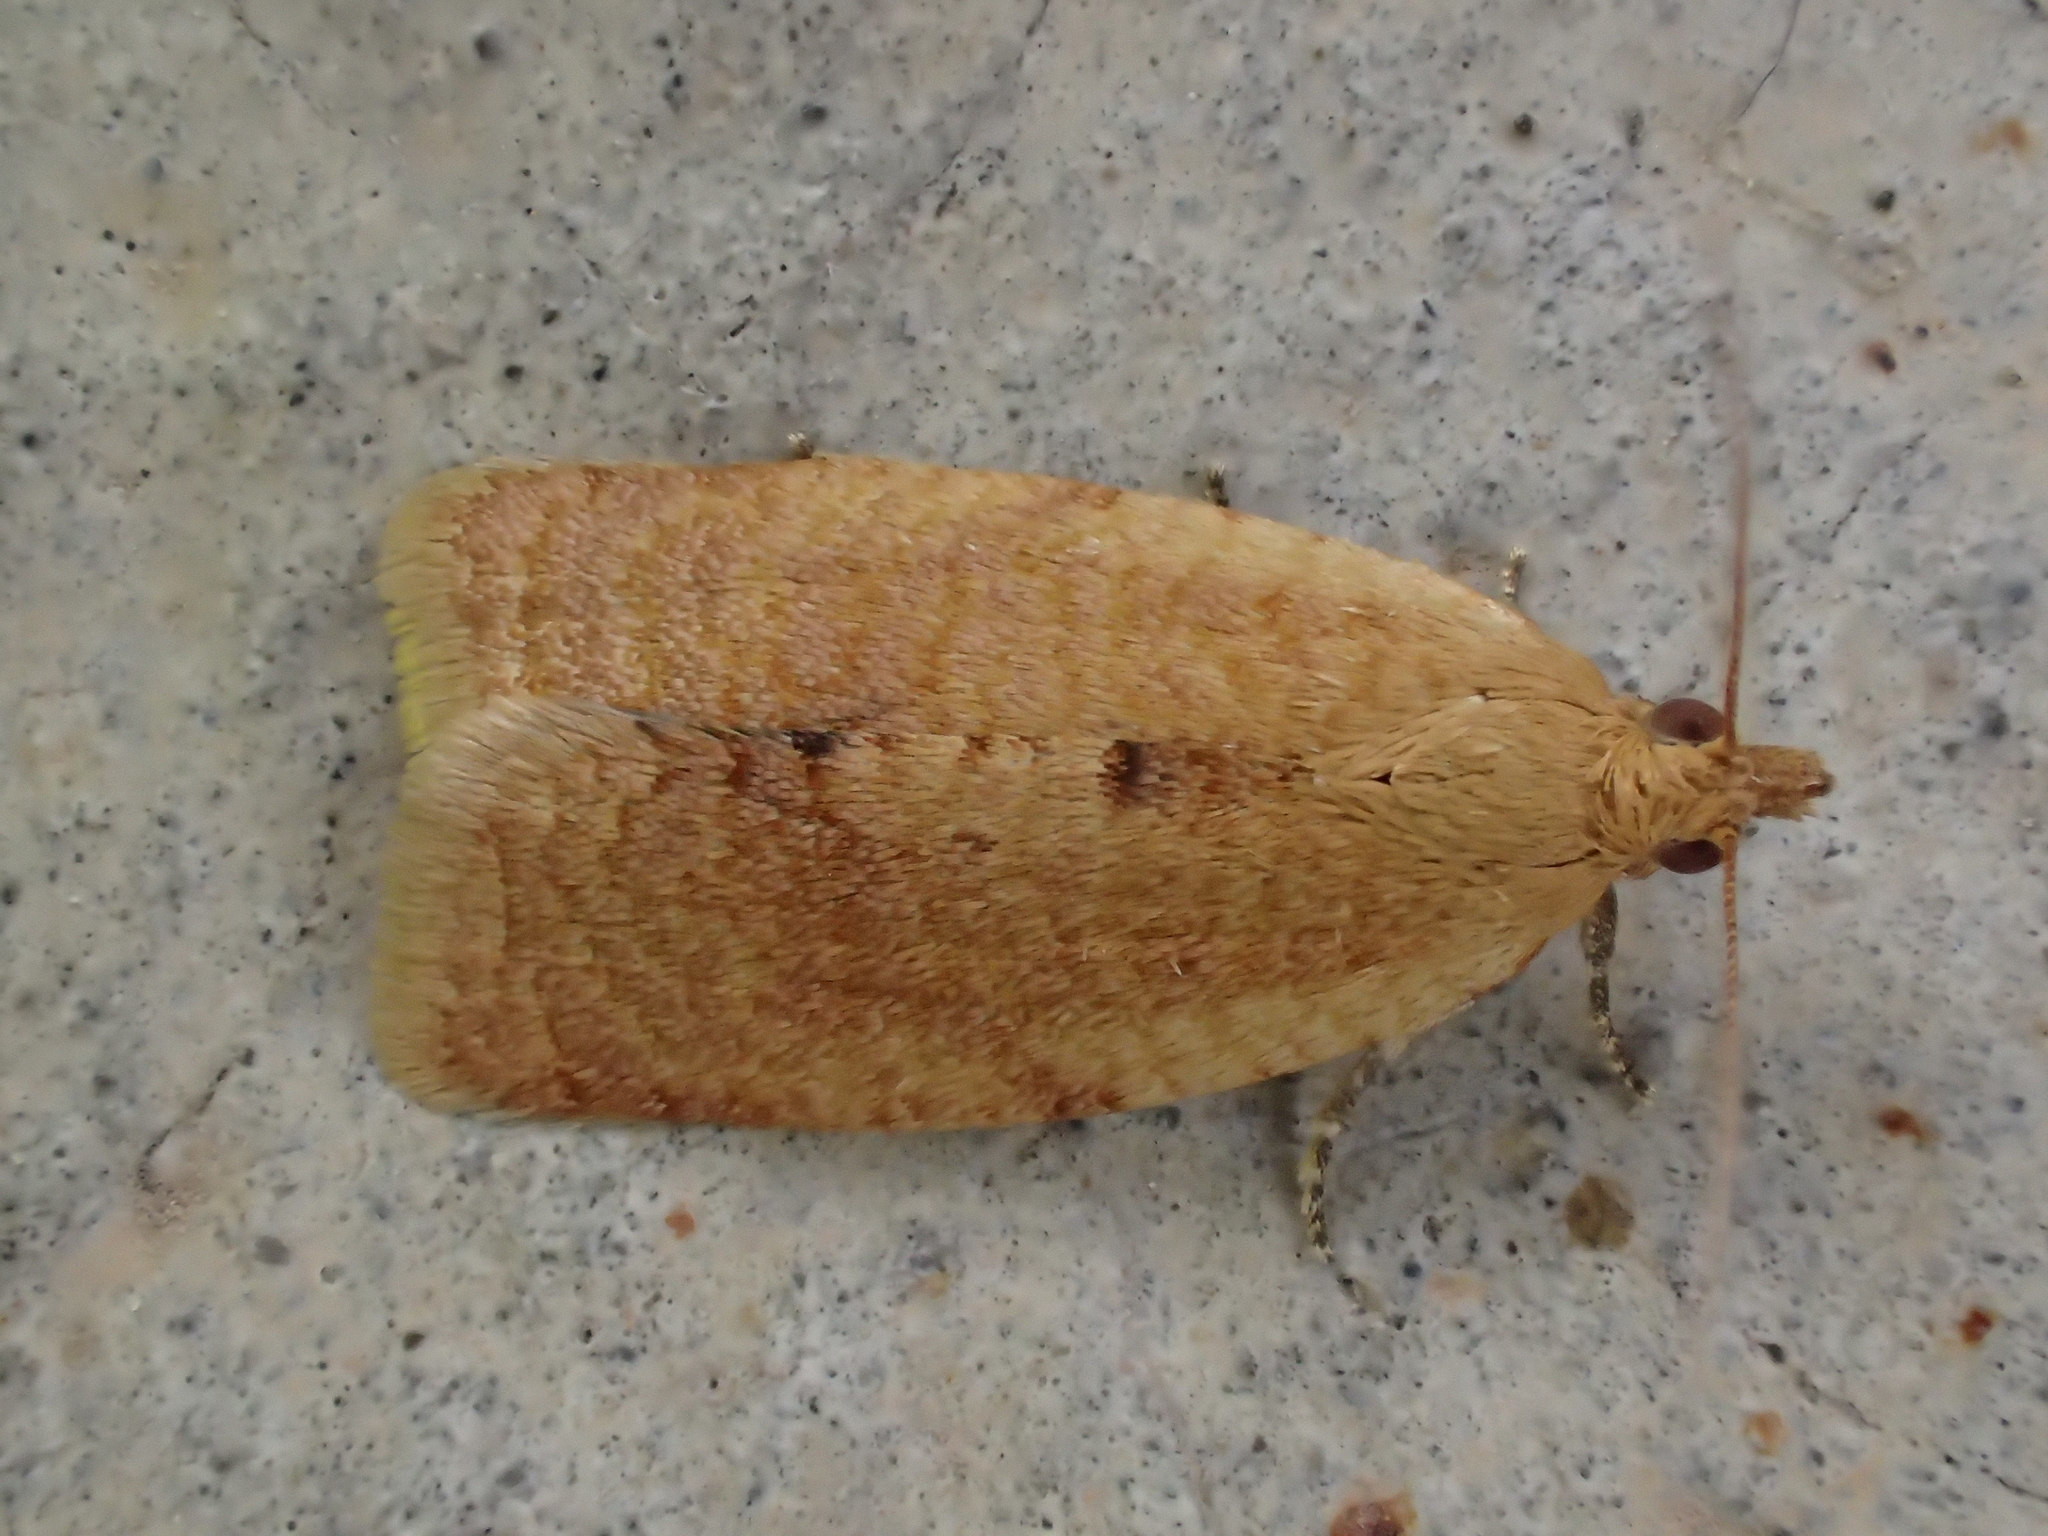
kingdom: Animalia
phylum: Arthropoda
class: Insecta
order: Lepidoptera
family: Tortricidae
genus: Clepsis
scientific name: Clepsis consimilana
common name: Privet tortrix
